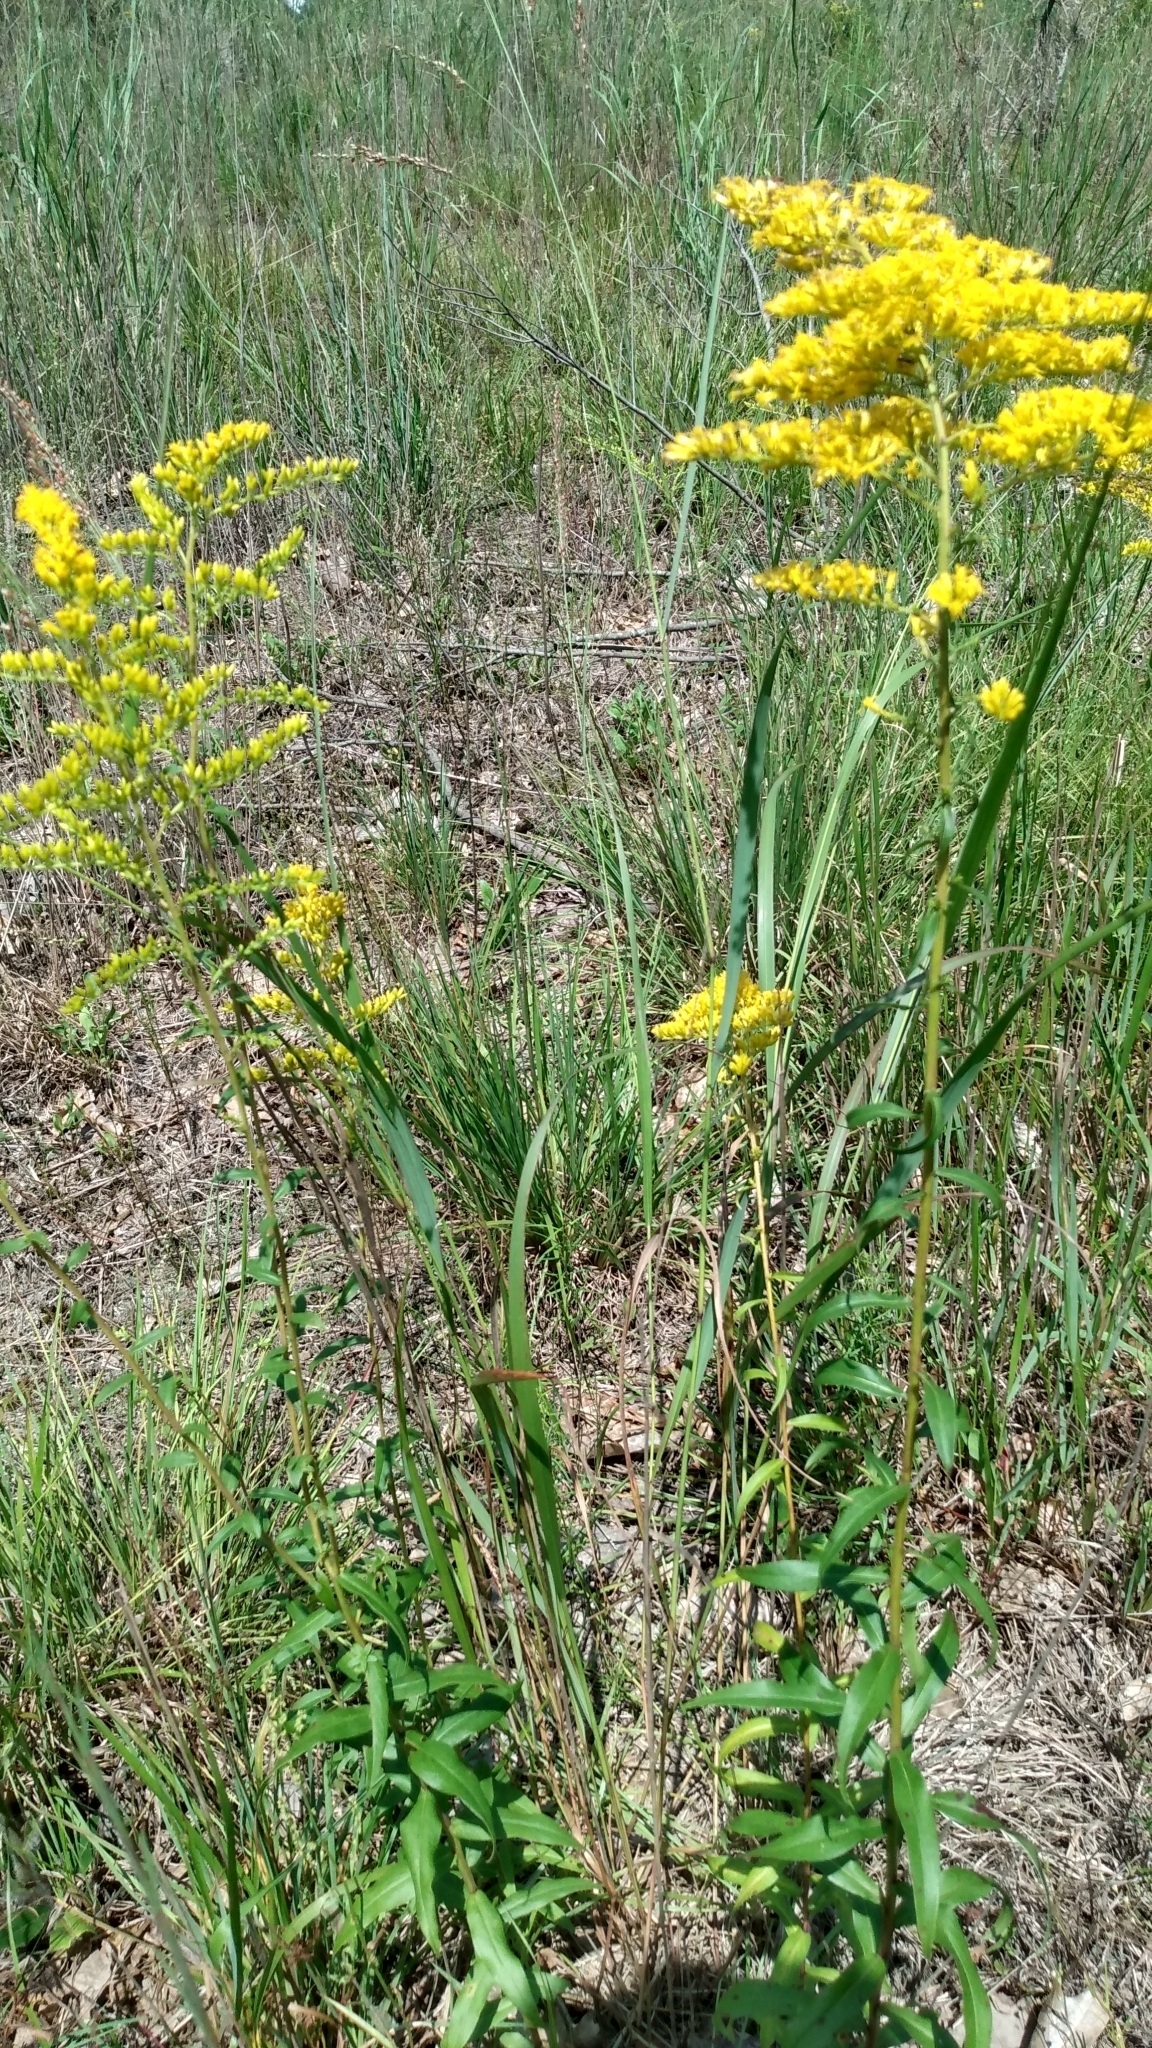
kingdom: Plantae
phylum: Tracheophyta
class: Magnoliopsida
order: Asterales
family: Asteraceae
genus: Solidago
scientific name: Solidago odora
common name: Anise-scented goldenrod
